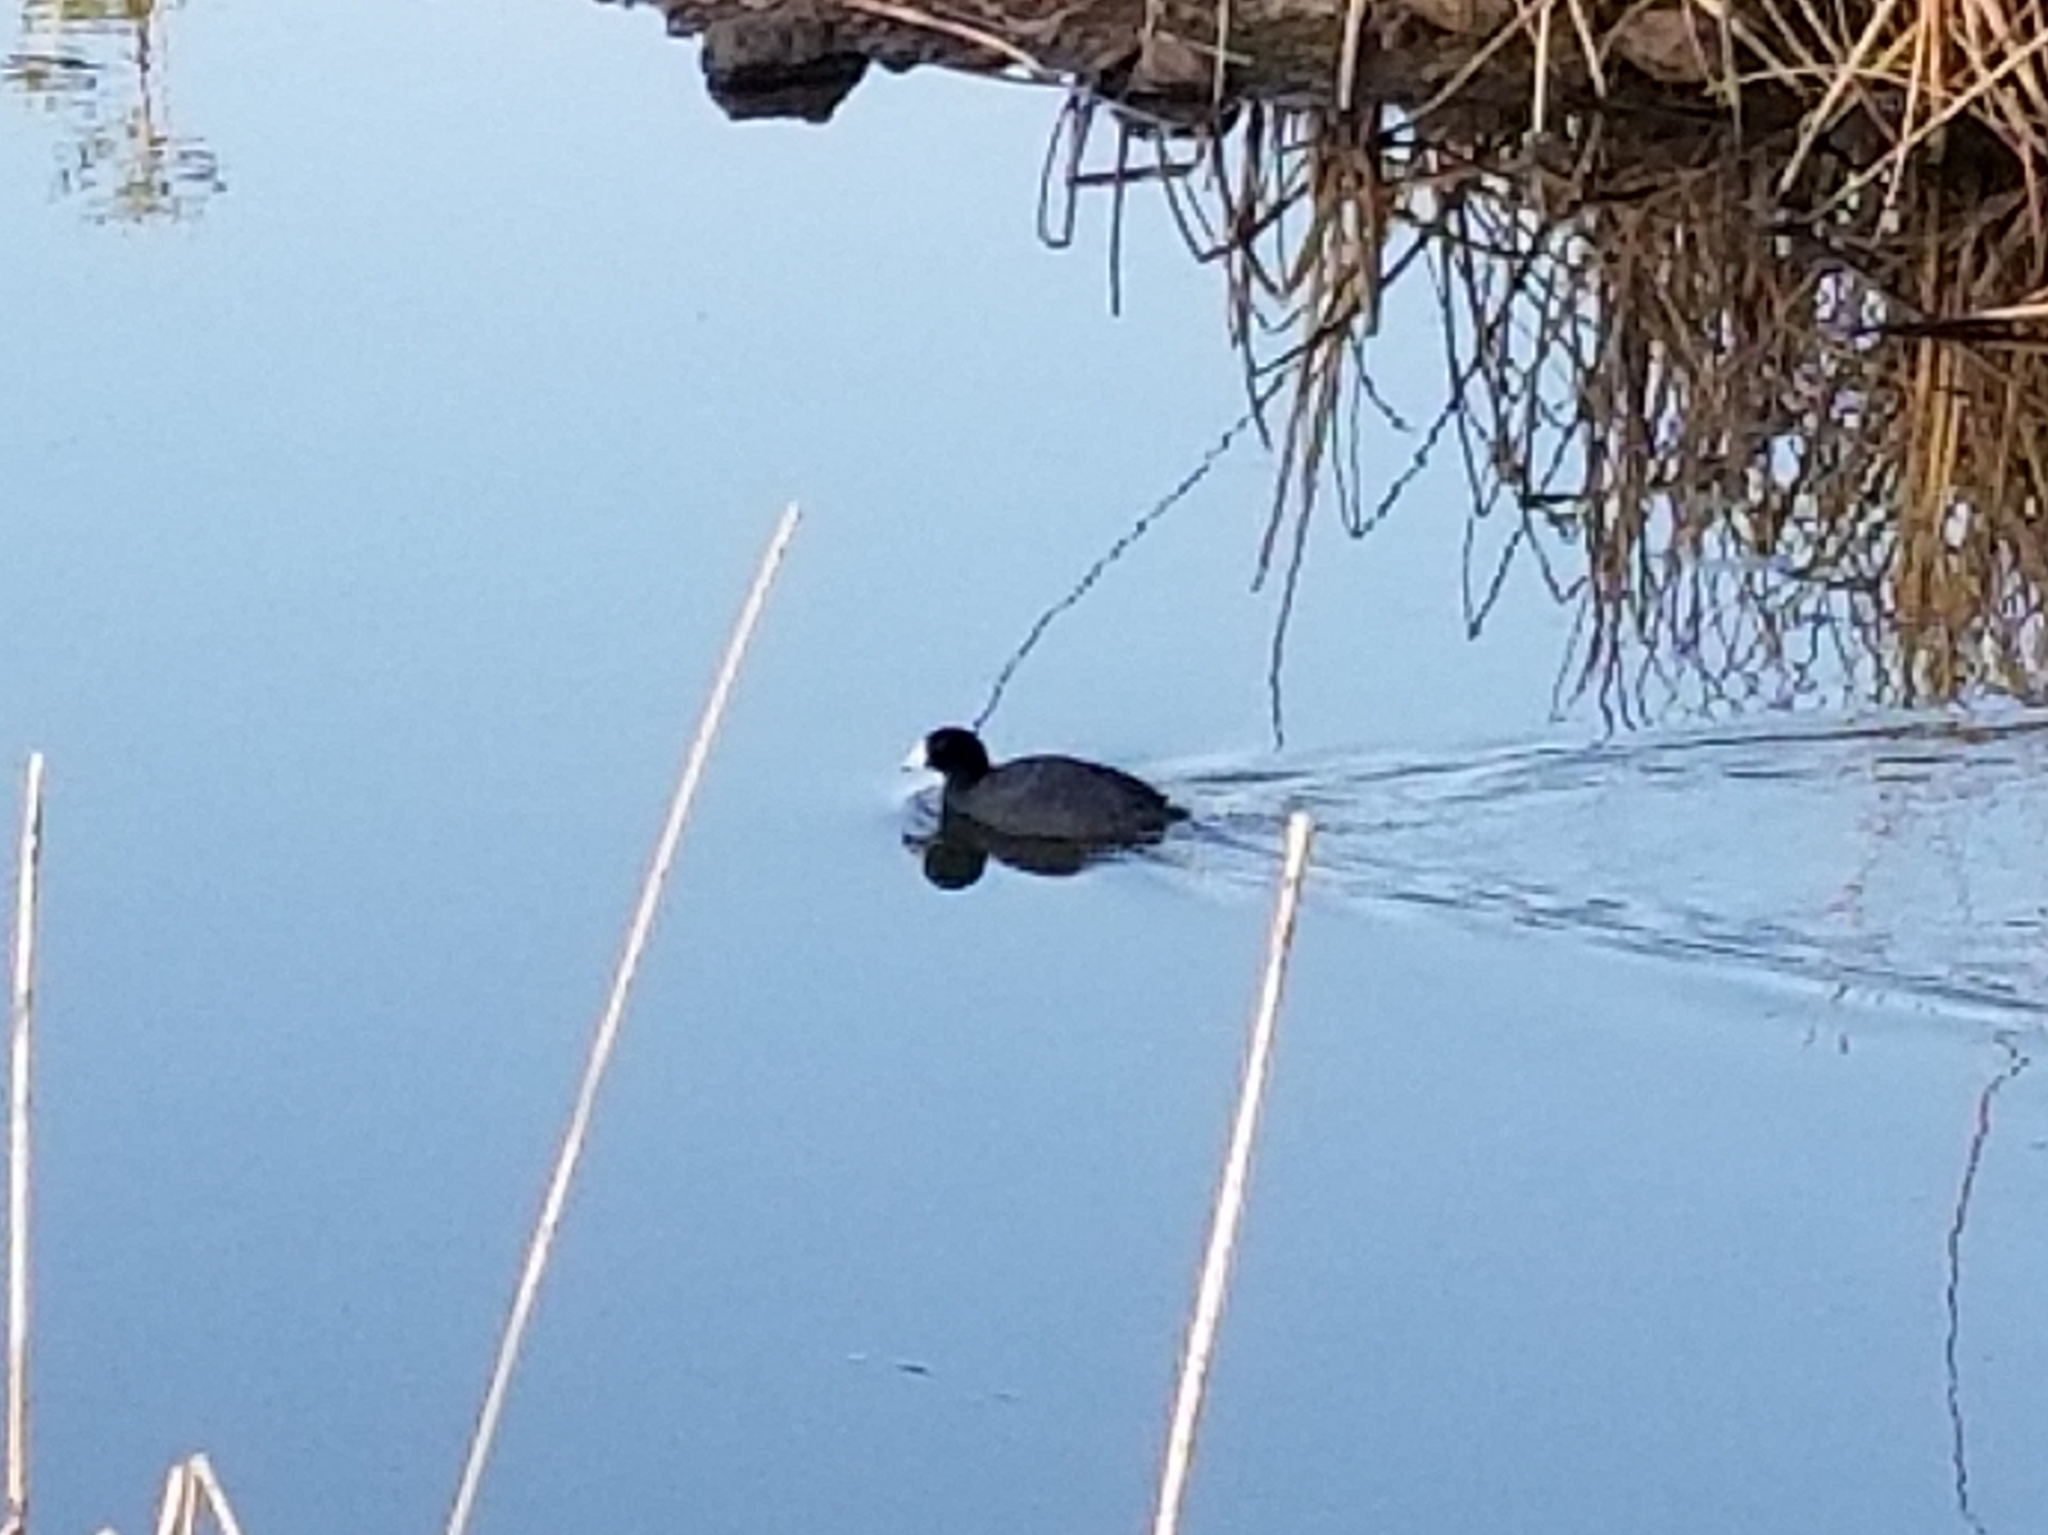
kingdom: Animalia
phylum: Chordata
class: Aves
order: Gruiformes
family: Rallidae
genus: Fulica
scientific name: Fulica americana
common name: American coot
